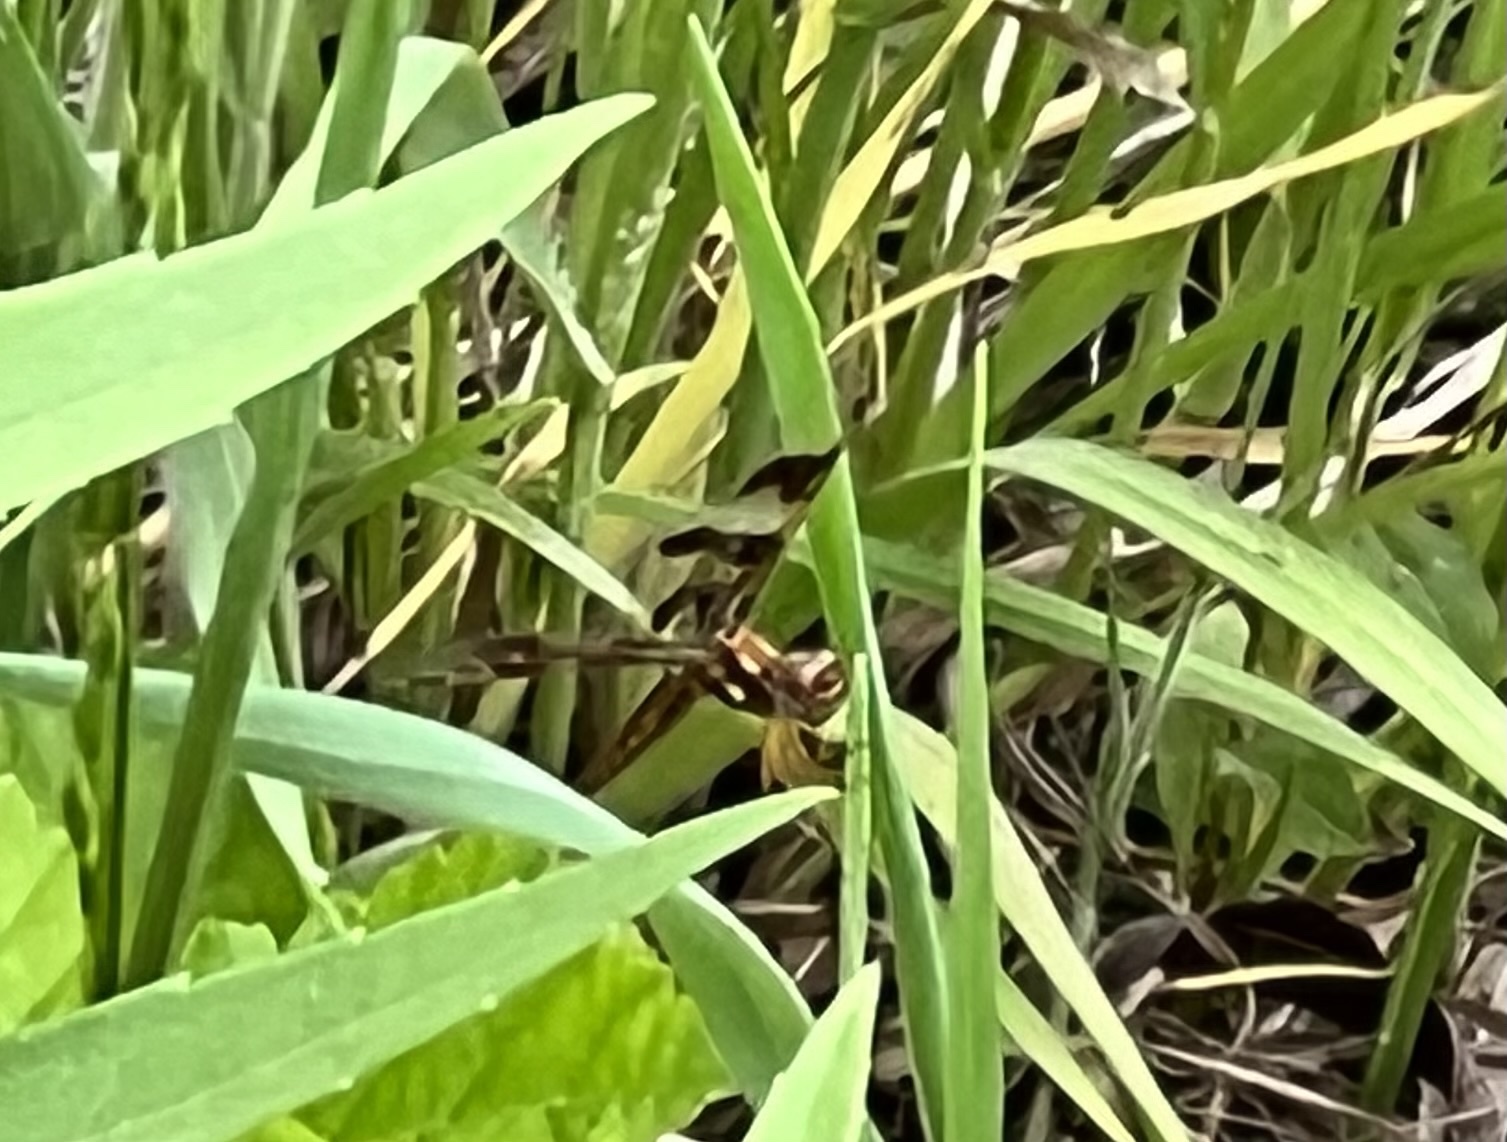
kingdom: Animalia
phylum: Arthropoda
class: Insecta
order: Odonata
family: Libellulidae
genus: Perithemis
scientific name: Perithemis tenera
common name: Eastern amberwing
